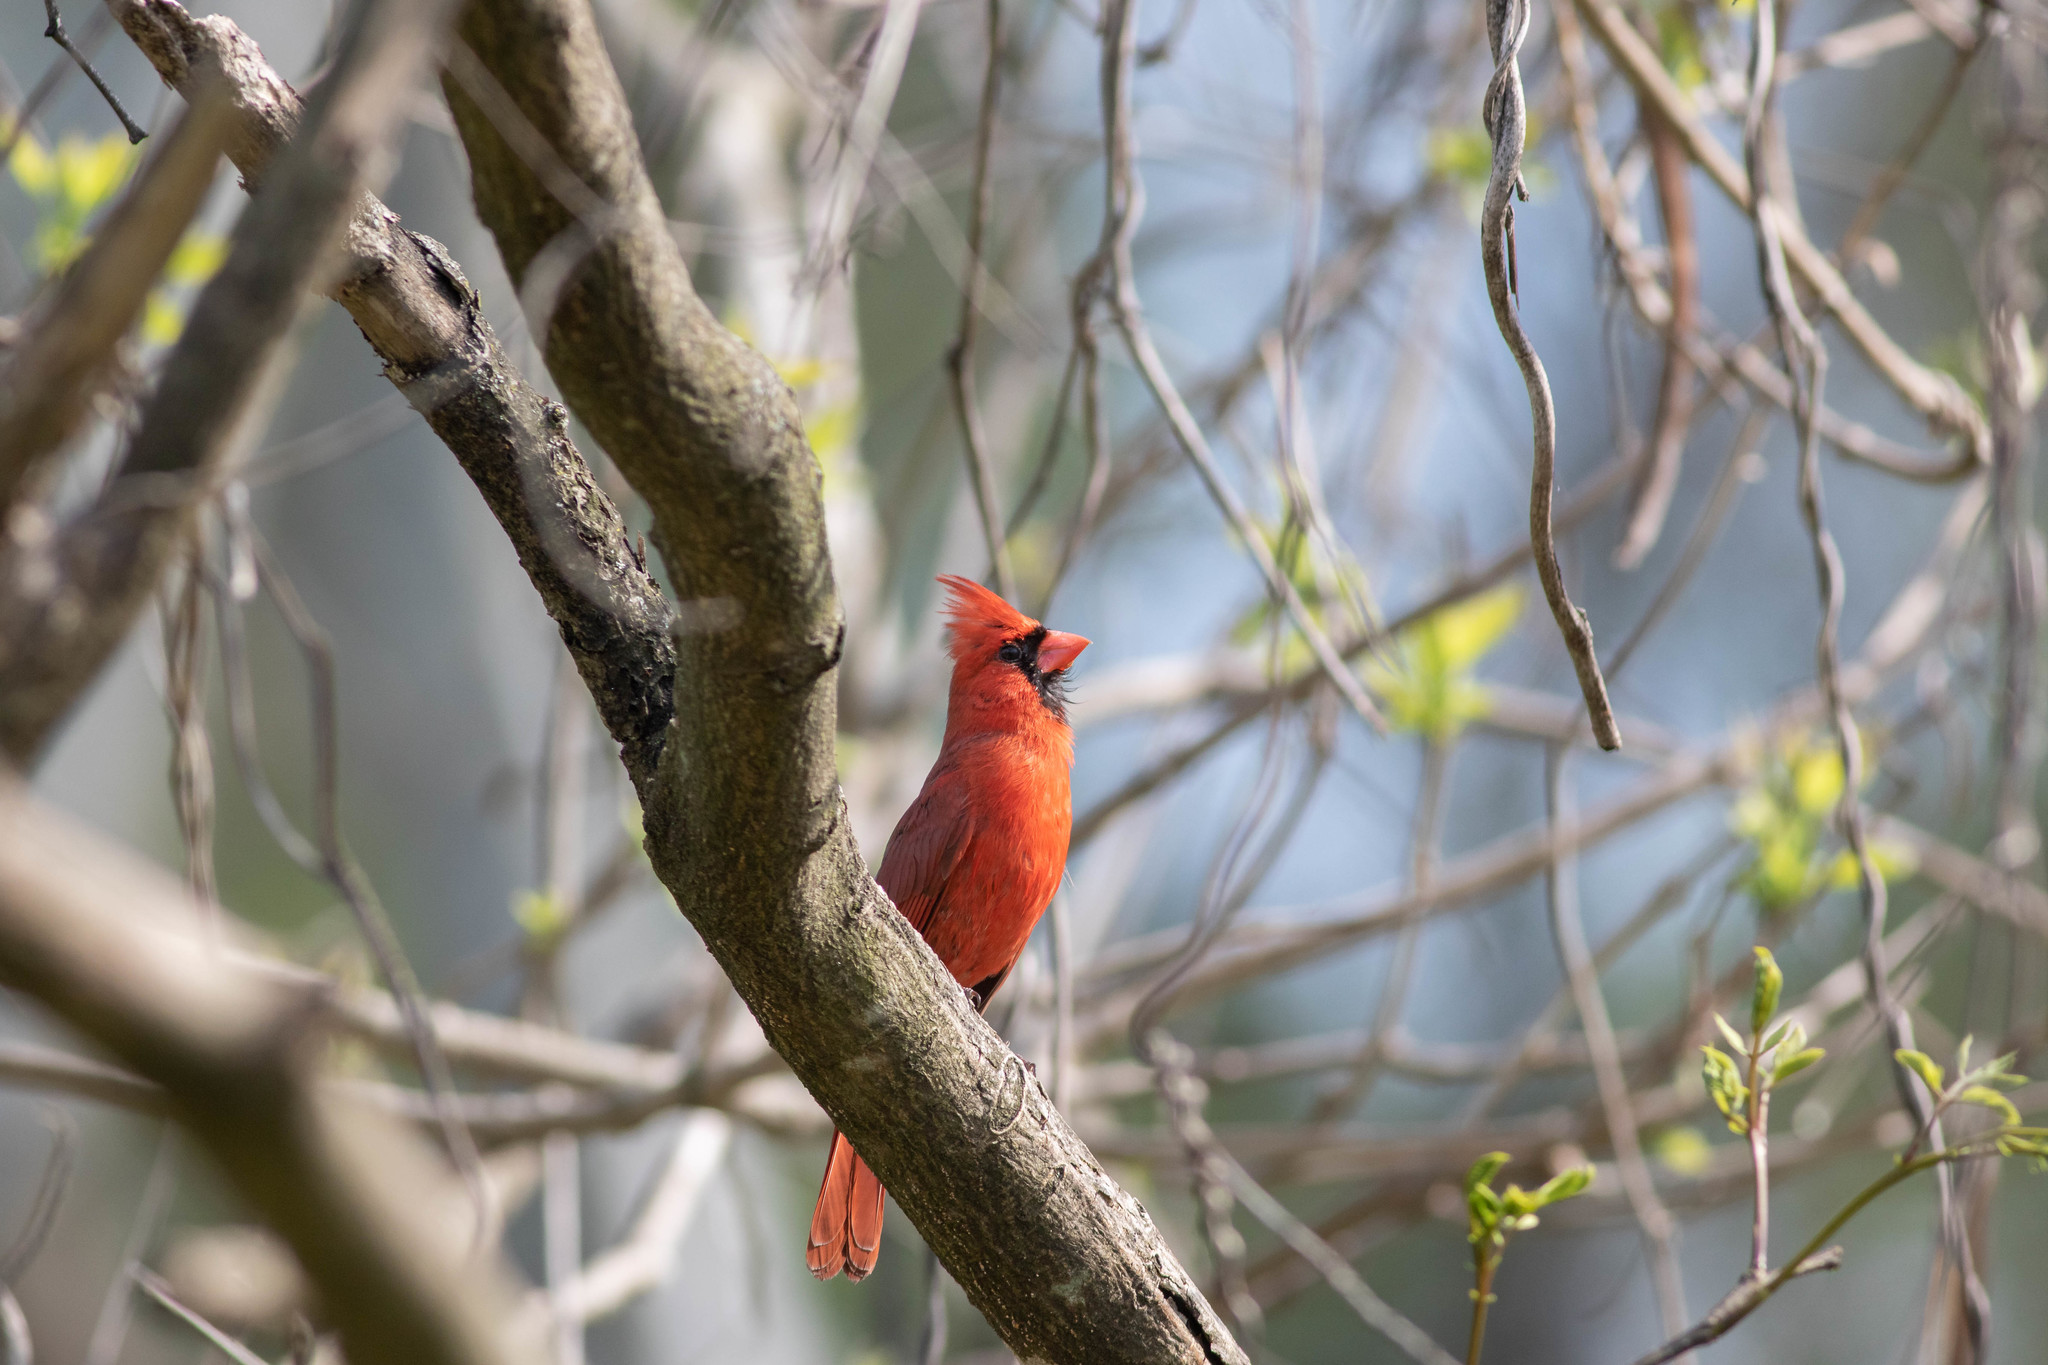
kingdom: Animalia
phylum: Chordata
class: Aves
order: Passeriformes
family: Cardinalidae
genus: Cardinalis
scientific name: Cardinalis cardinalis
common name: Northern cardinal
